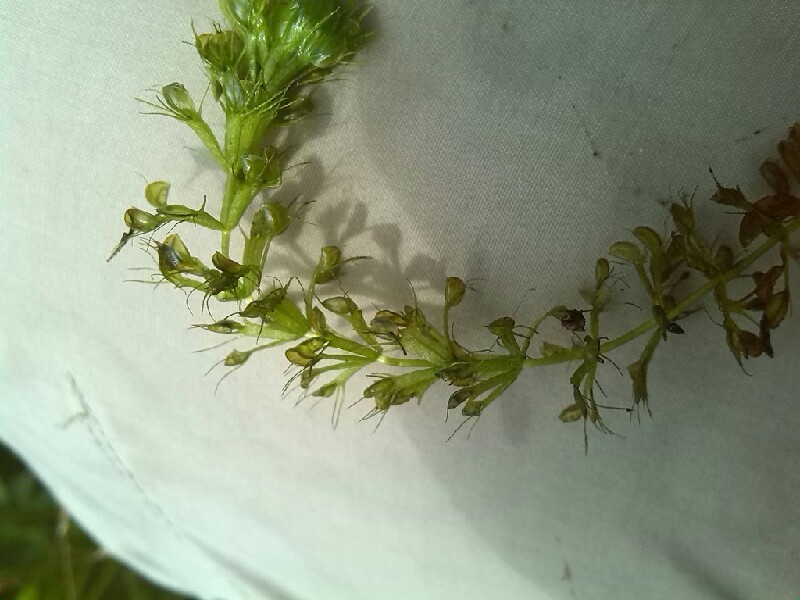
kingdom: Plantae
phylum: Tracheophyta
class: Magnoliopsida
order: Caryophyllales
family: Droseraceae
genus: Aldrovanda
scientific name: Aldrovanda vesiculosa
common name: Waterwheel plant
